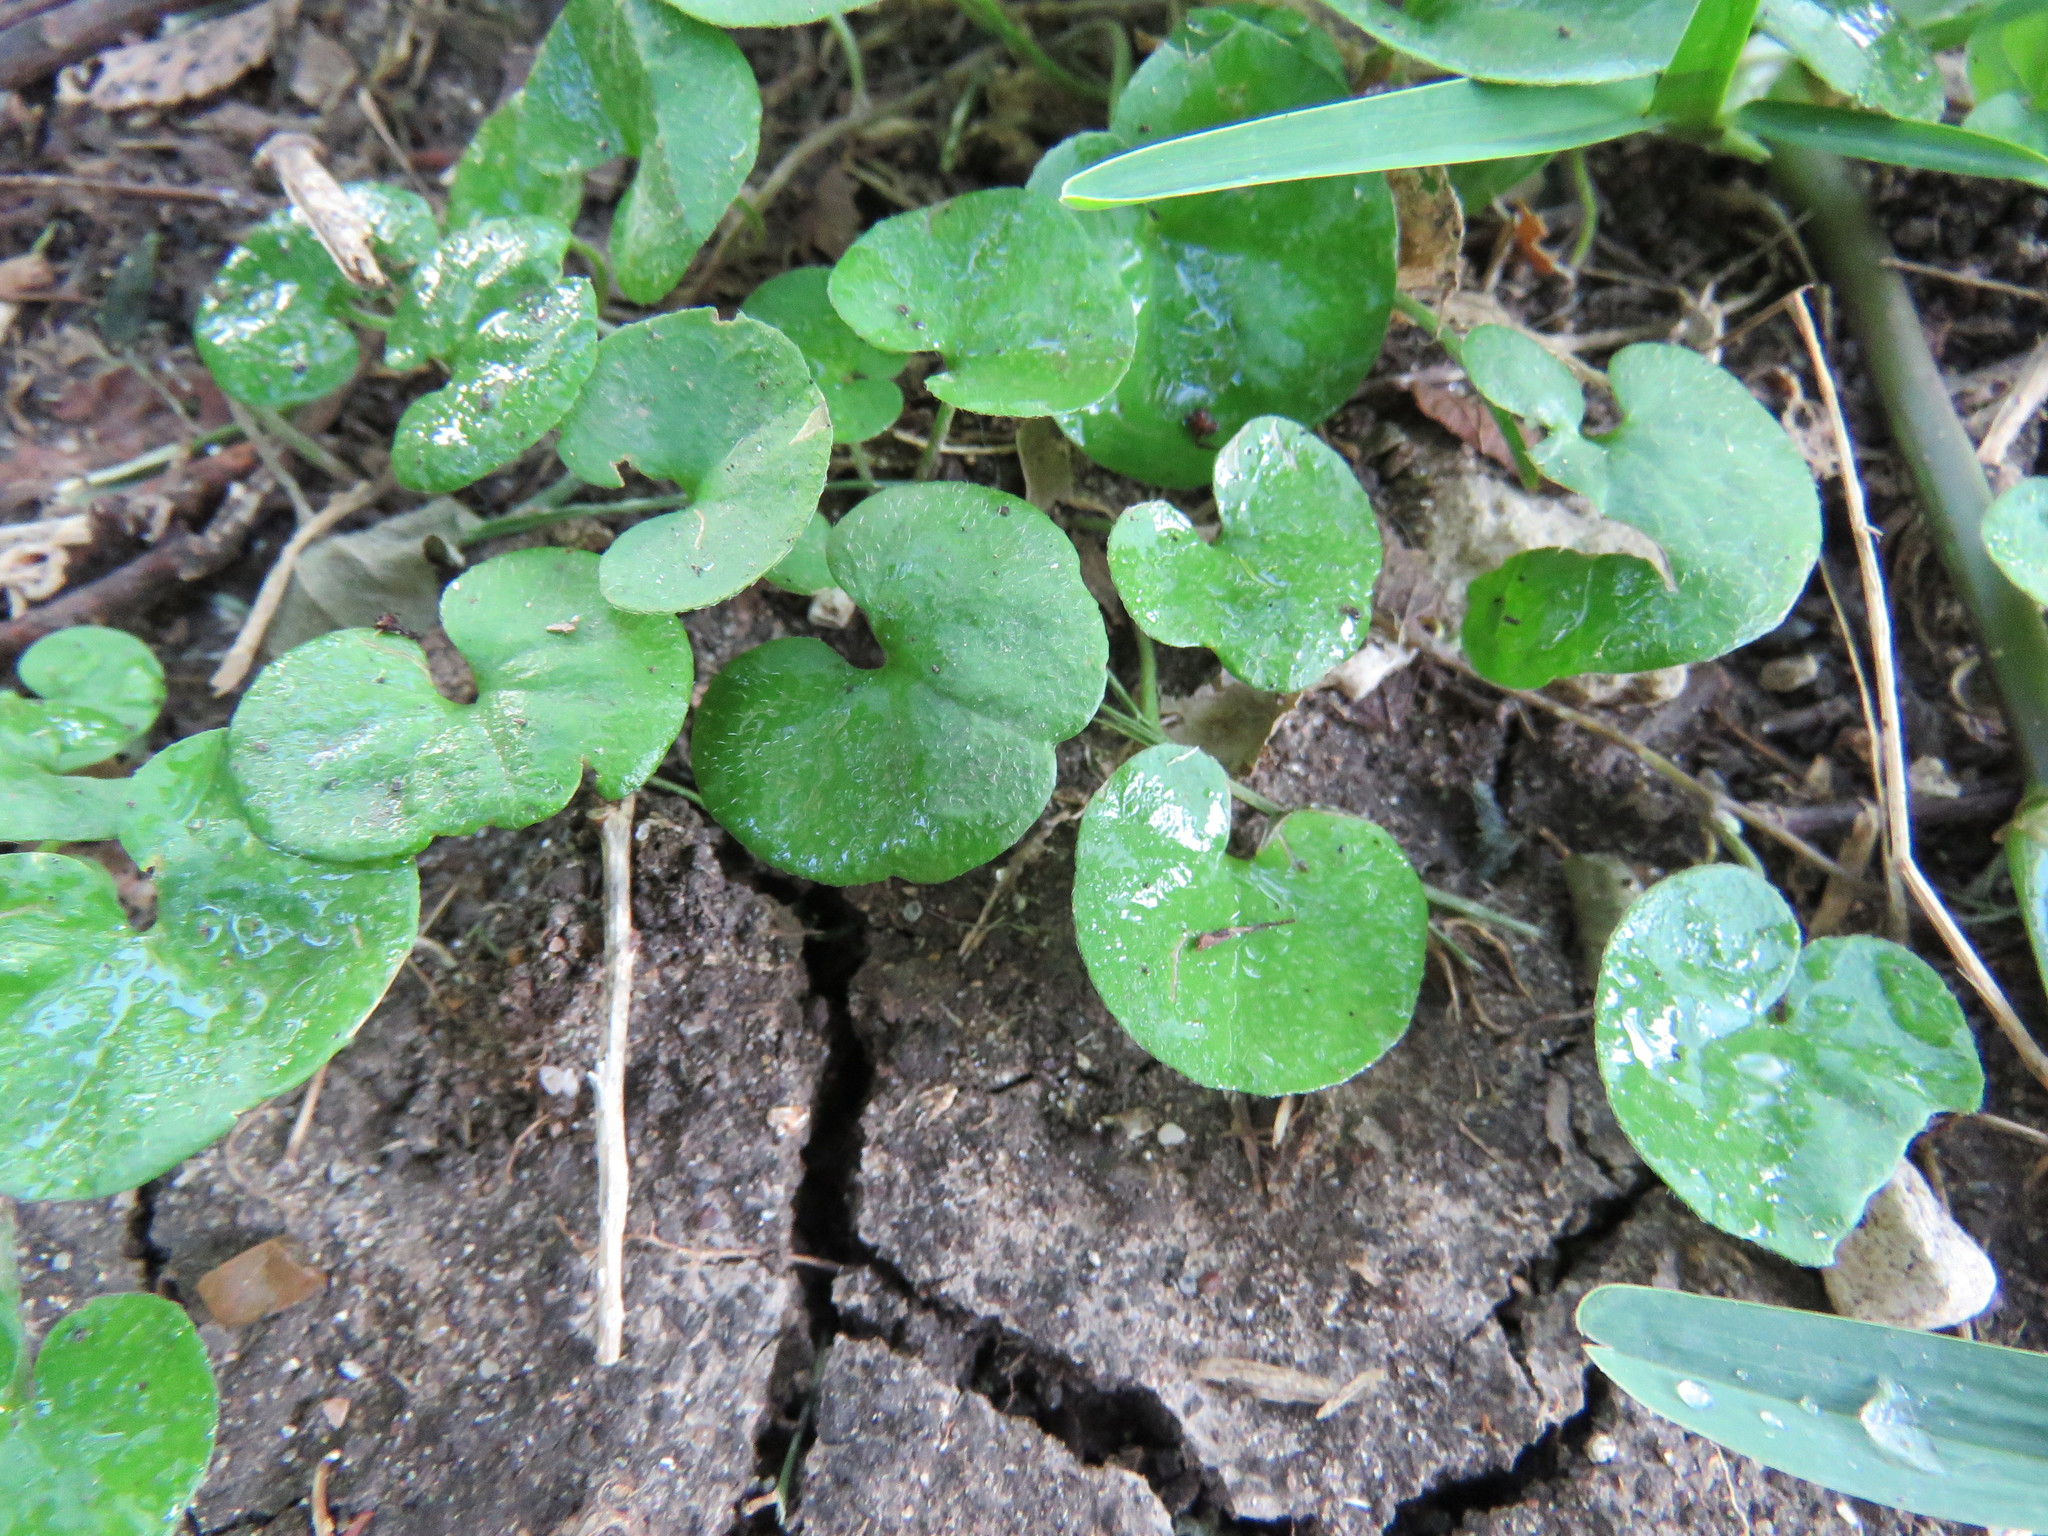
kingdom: Plantae
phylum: Tracheophyta
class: Magnoliopsida
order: Solanales
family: Convolvulaceae
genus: Dichondra
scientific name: Dichondra carolinensis
